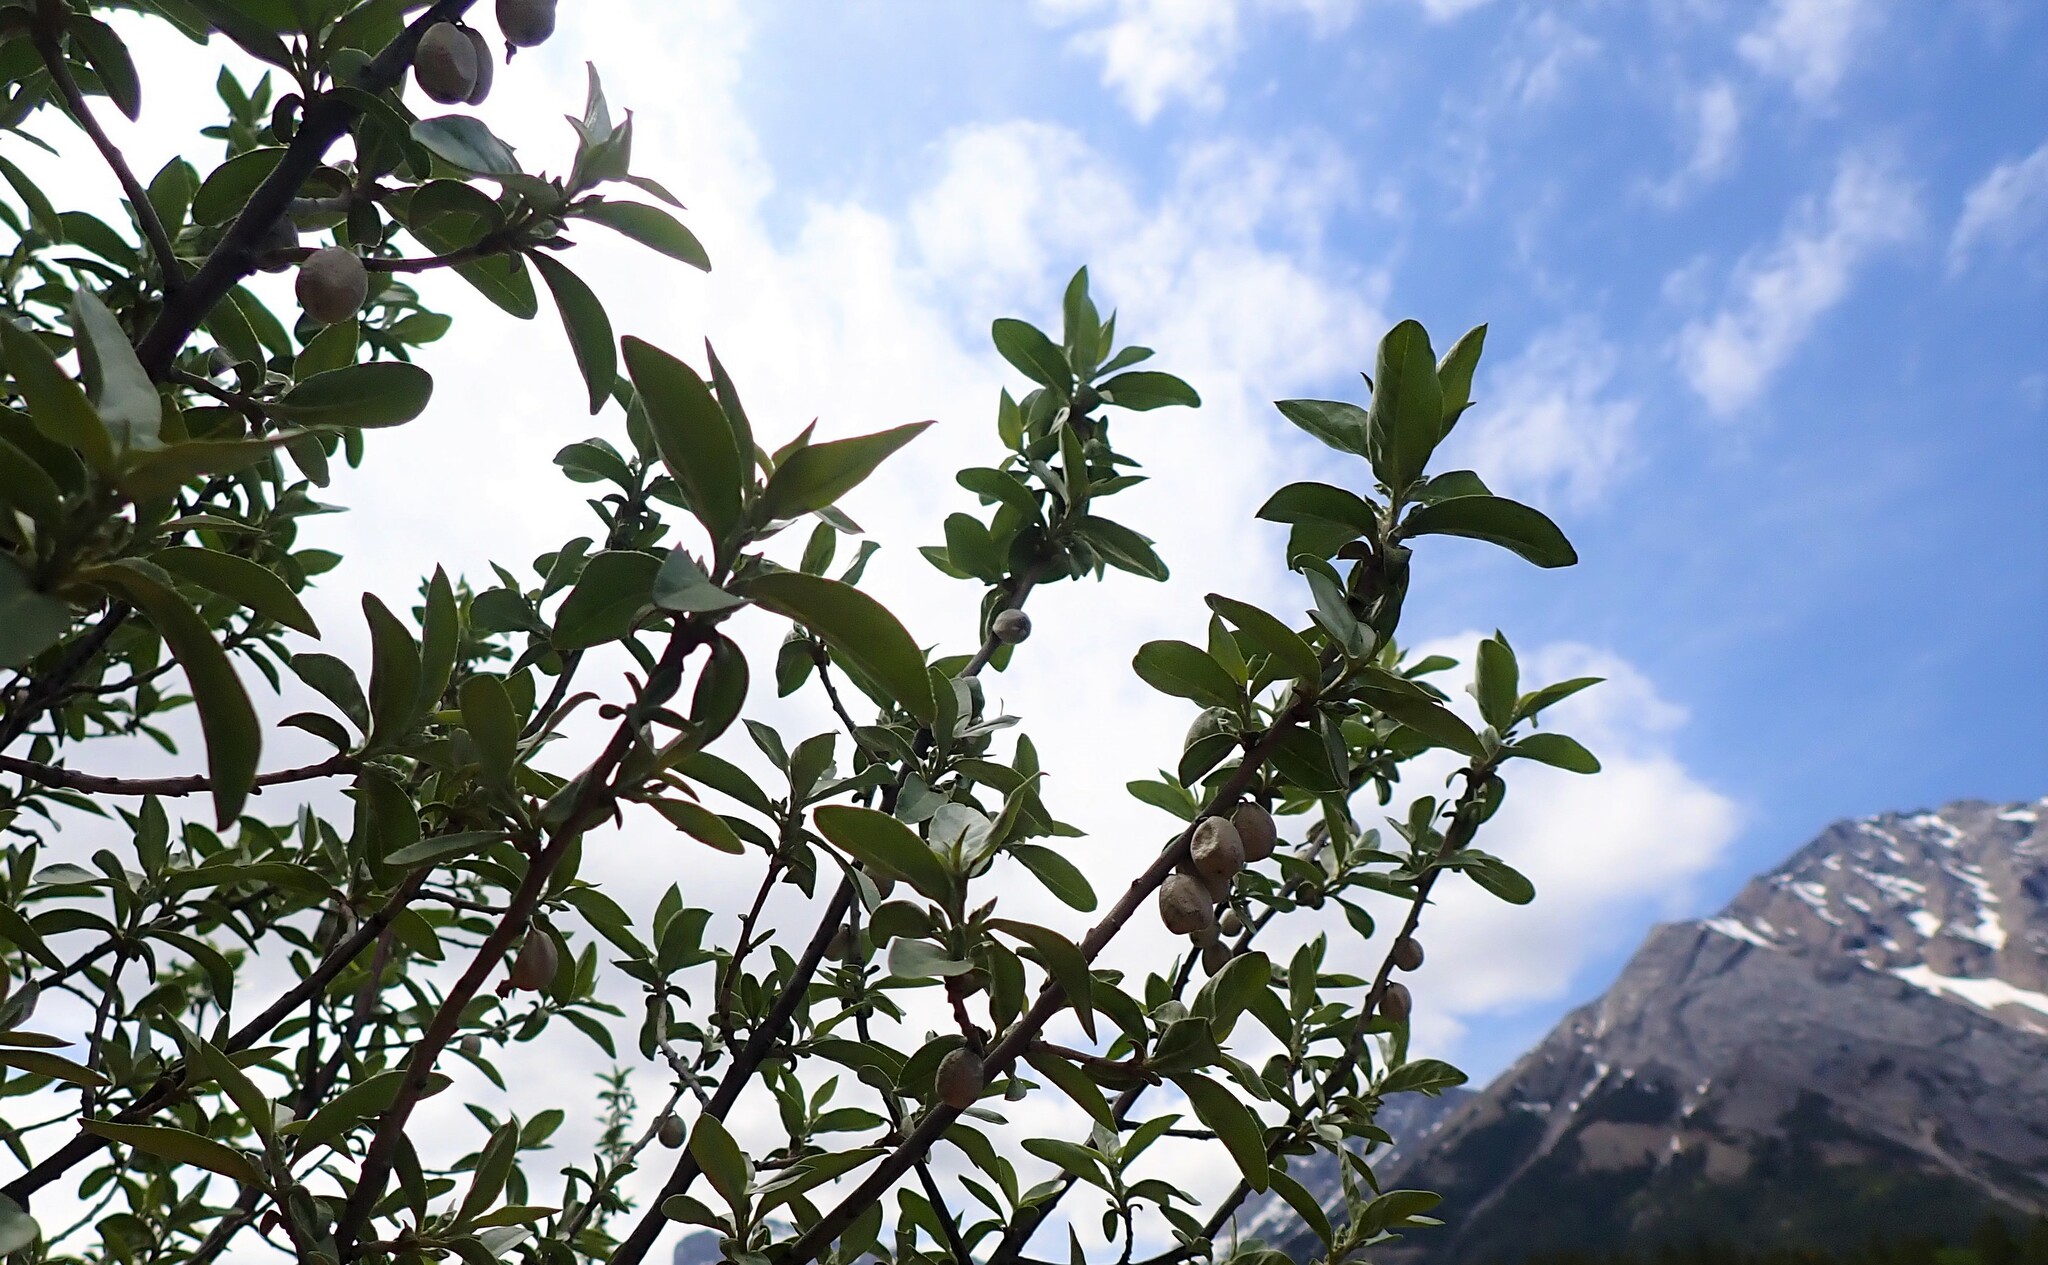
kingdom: Plantae
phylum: Tracheophyta
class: Magnoliopsida
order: Rosales
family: Elaeagnaceae
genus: Elaeagnus
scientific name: Elaeagnus commutata
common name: Silverberry
